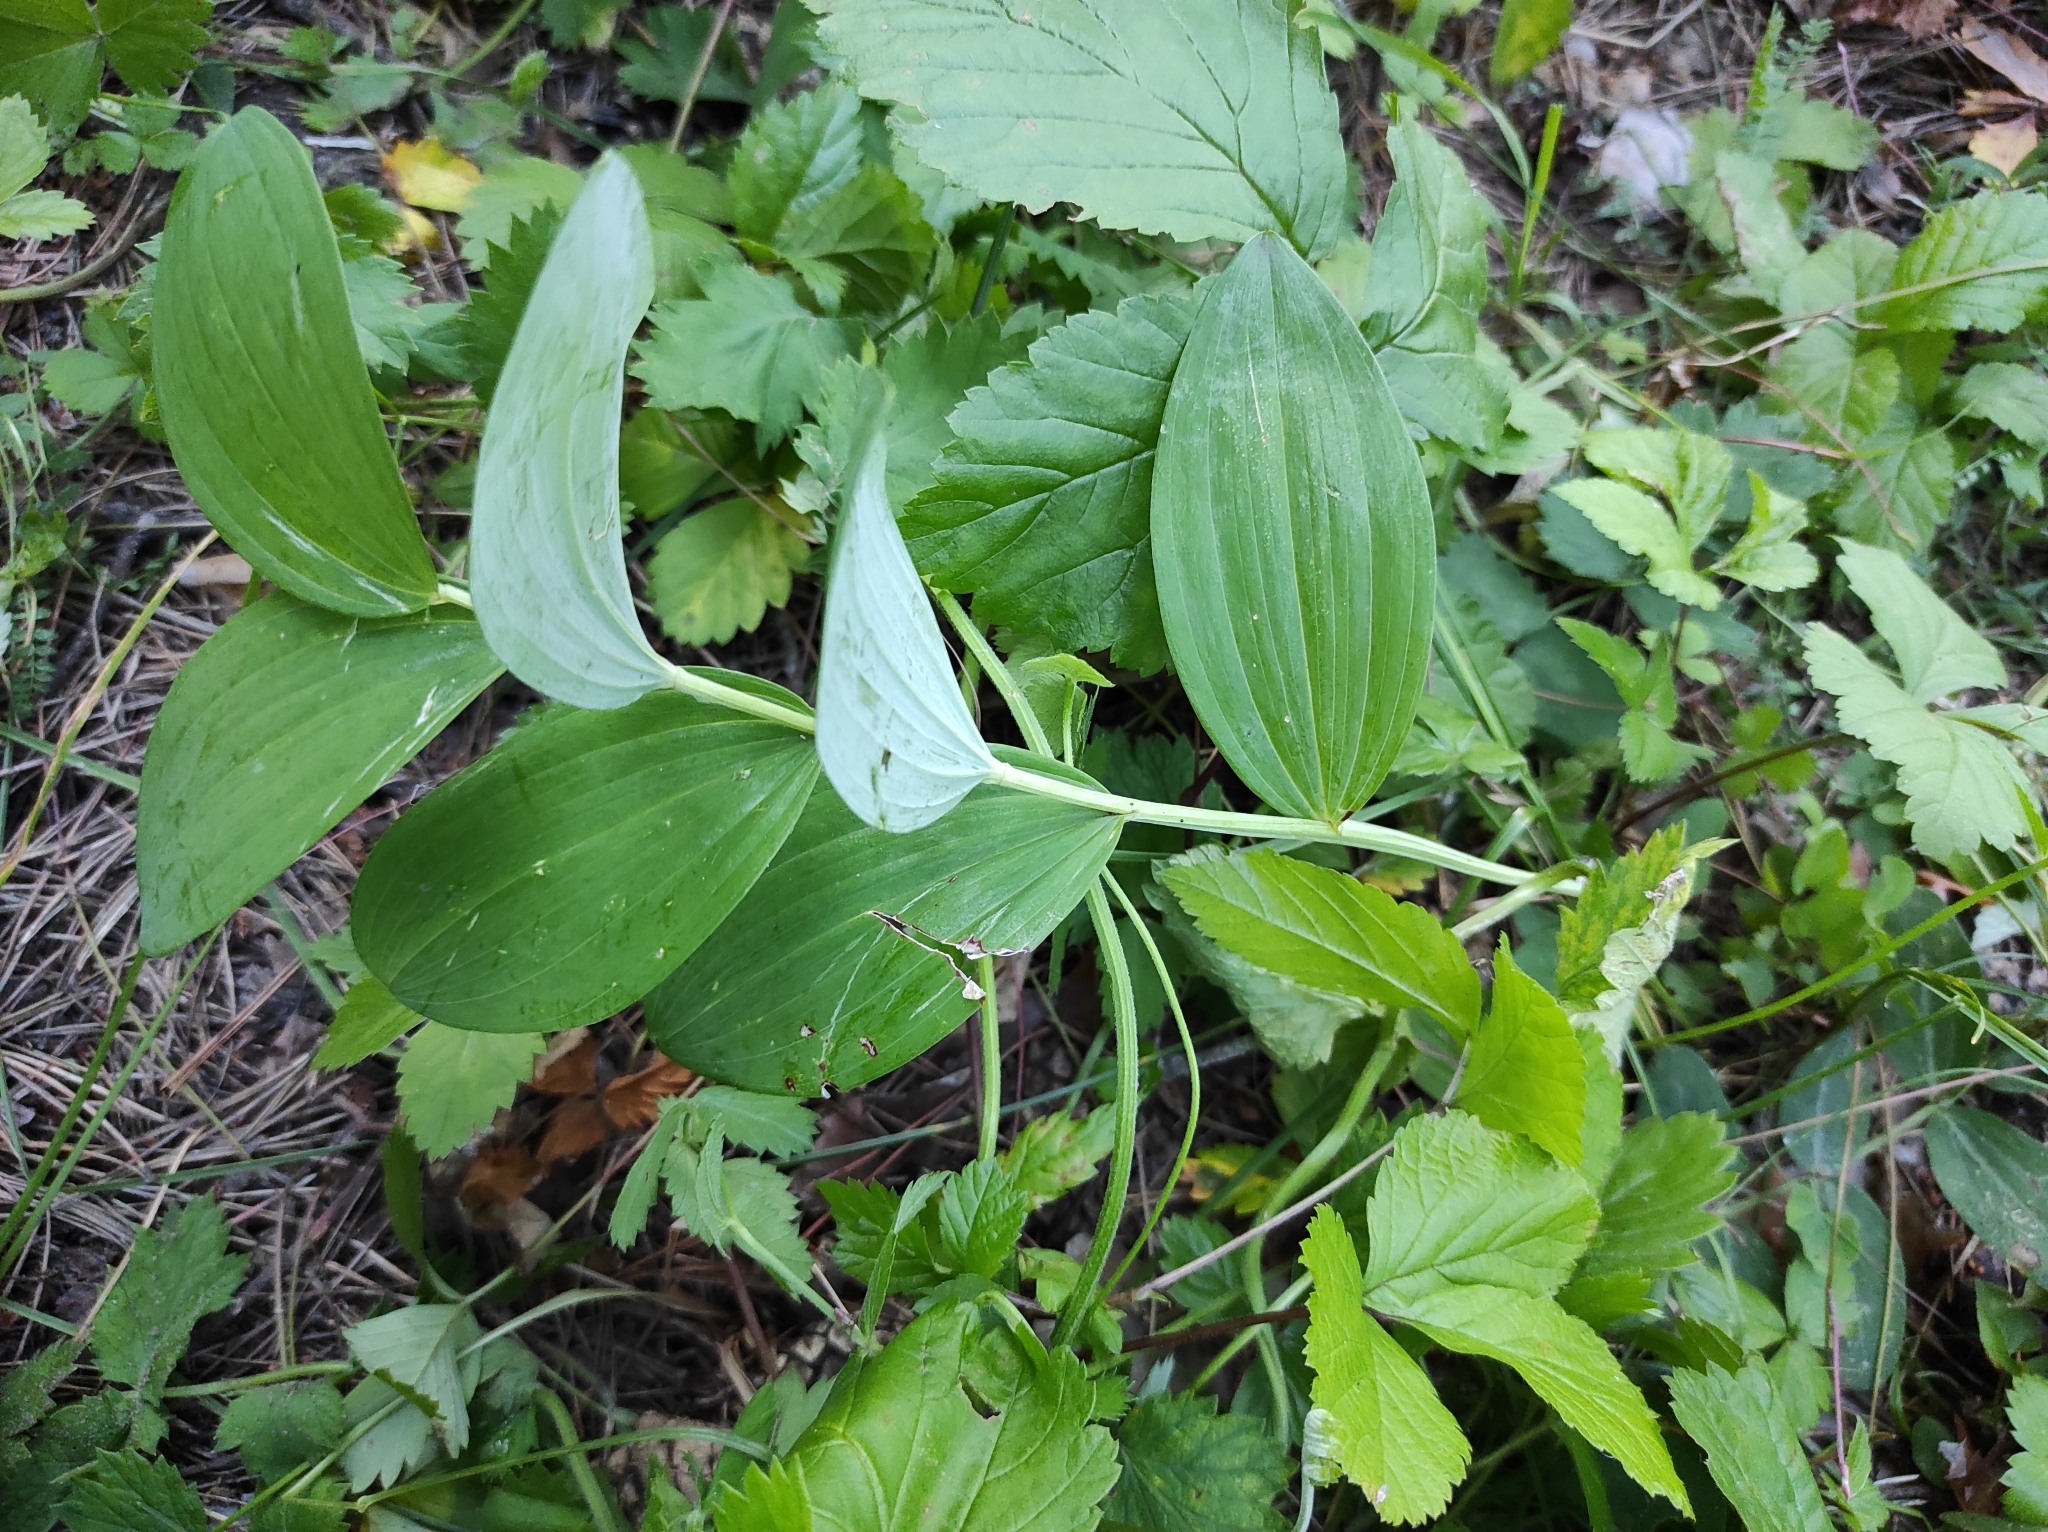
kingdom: Plantae
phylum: Tracheophyta
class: Liliopsida
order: Asparagales
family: Asparagaceae
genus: Polygonatum
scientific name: Polygonatum odoratum
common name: Angular solomon's-seal
